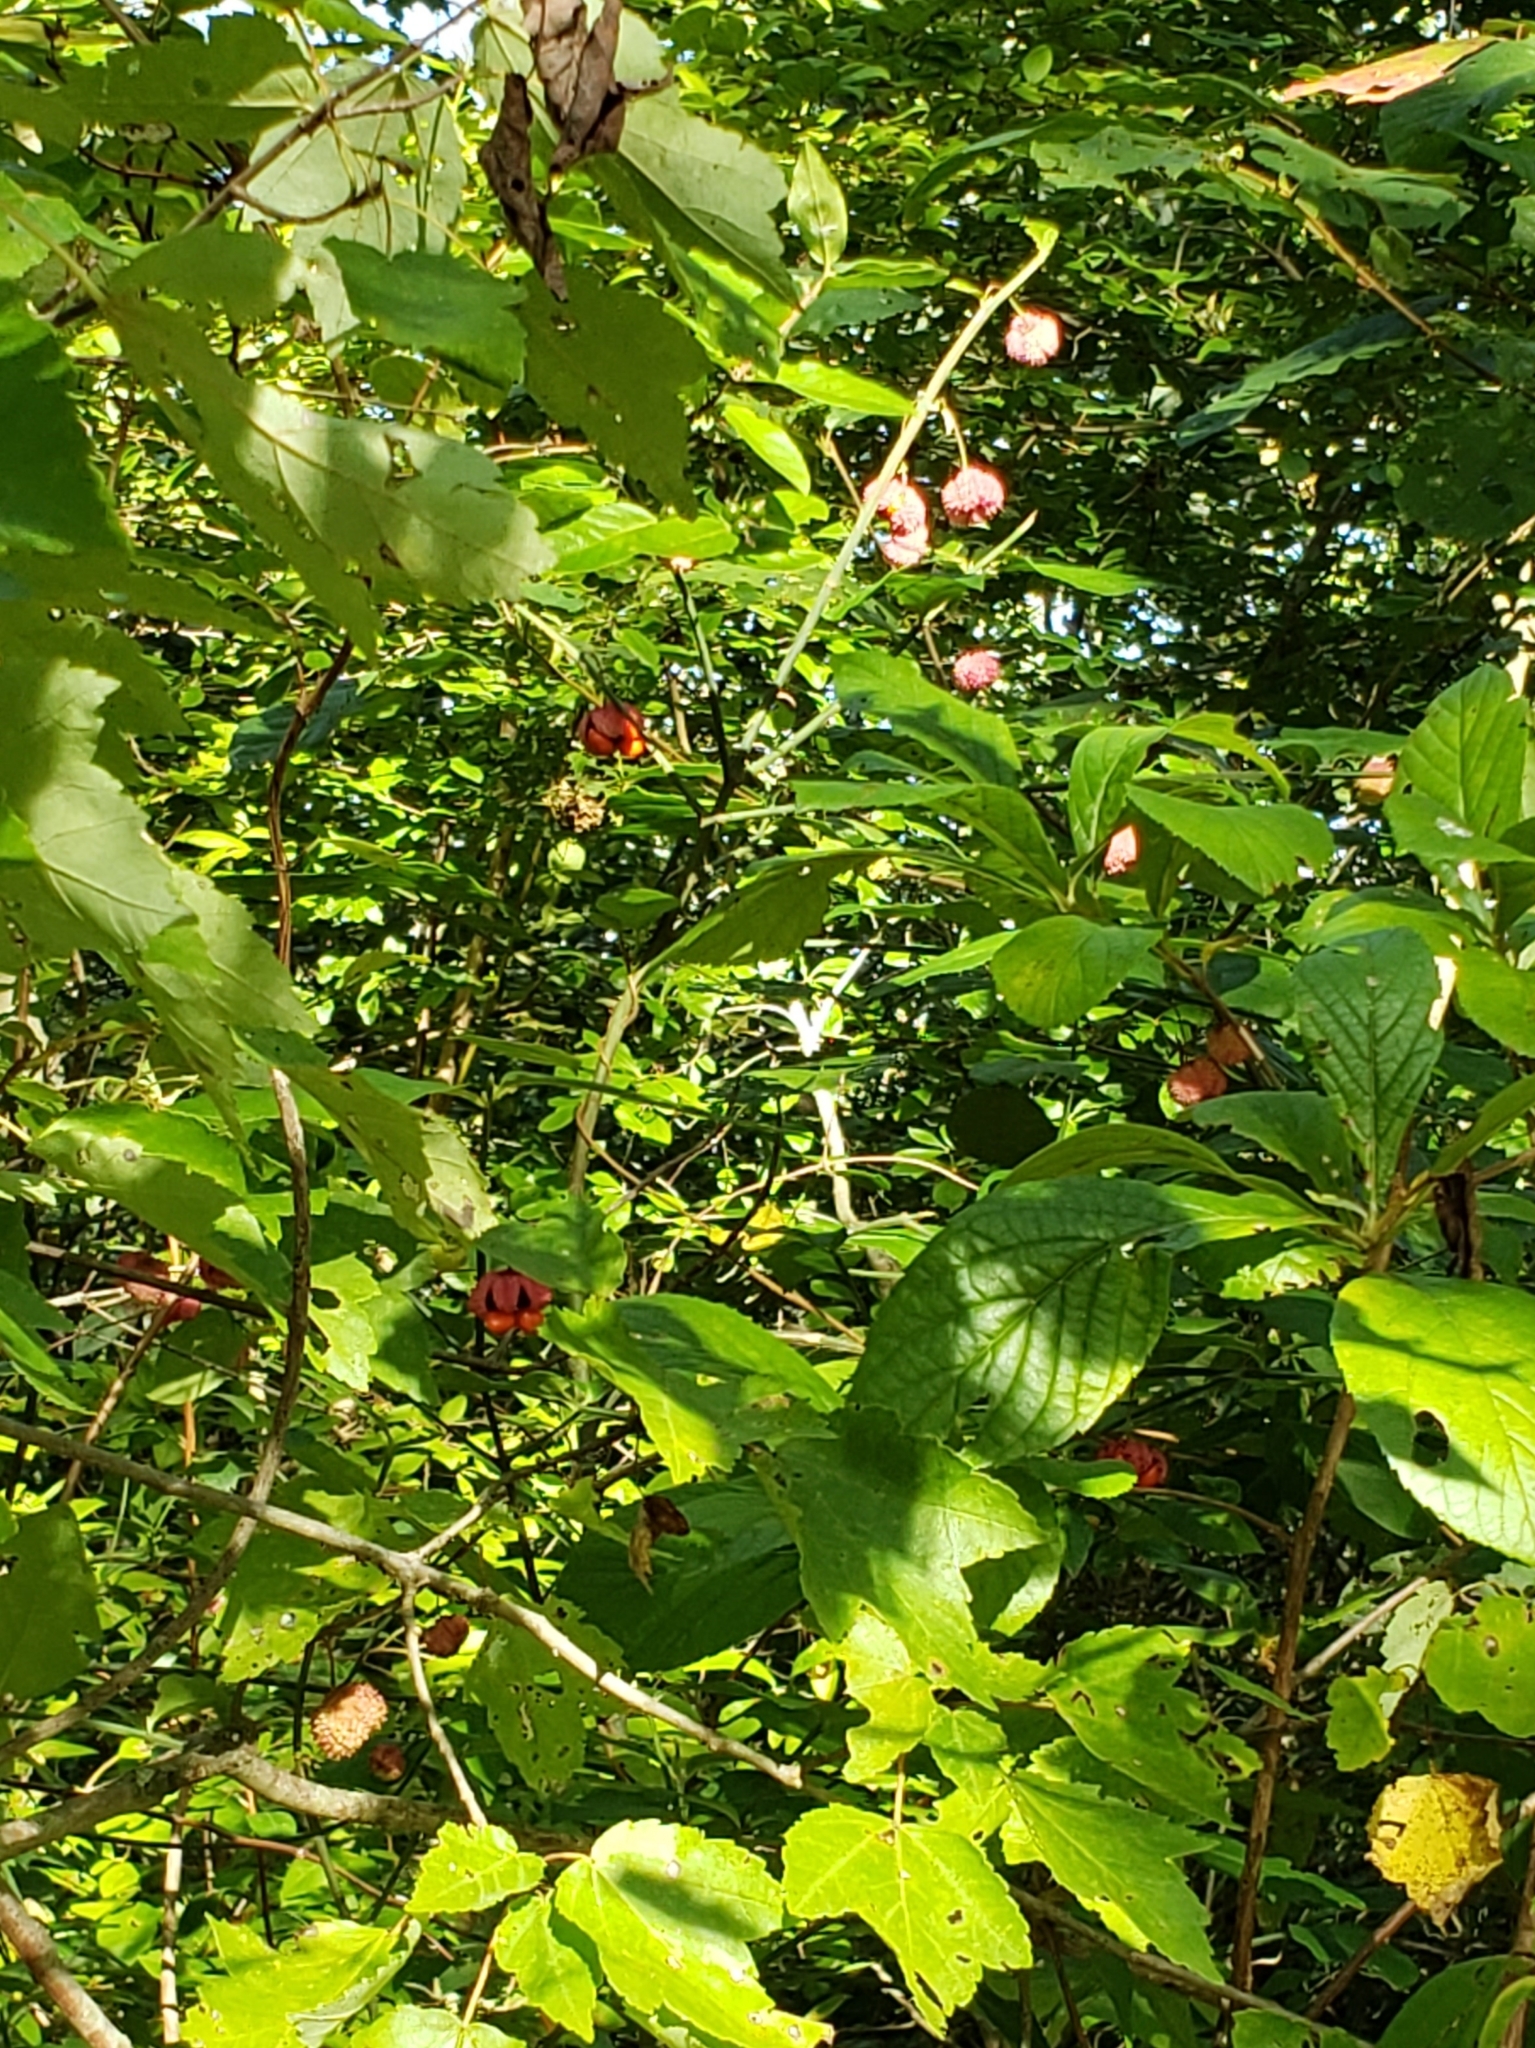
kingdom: Plantae
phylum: Tracheophyta
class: Magnoliopsida
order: Celastrales
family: Celastraceae
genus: Euonymus
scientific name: Euonymus americanus
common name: Bursting-heart
